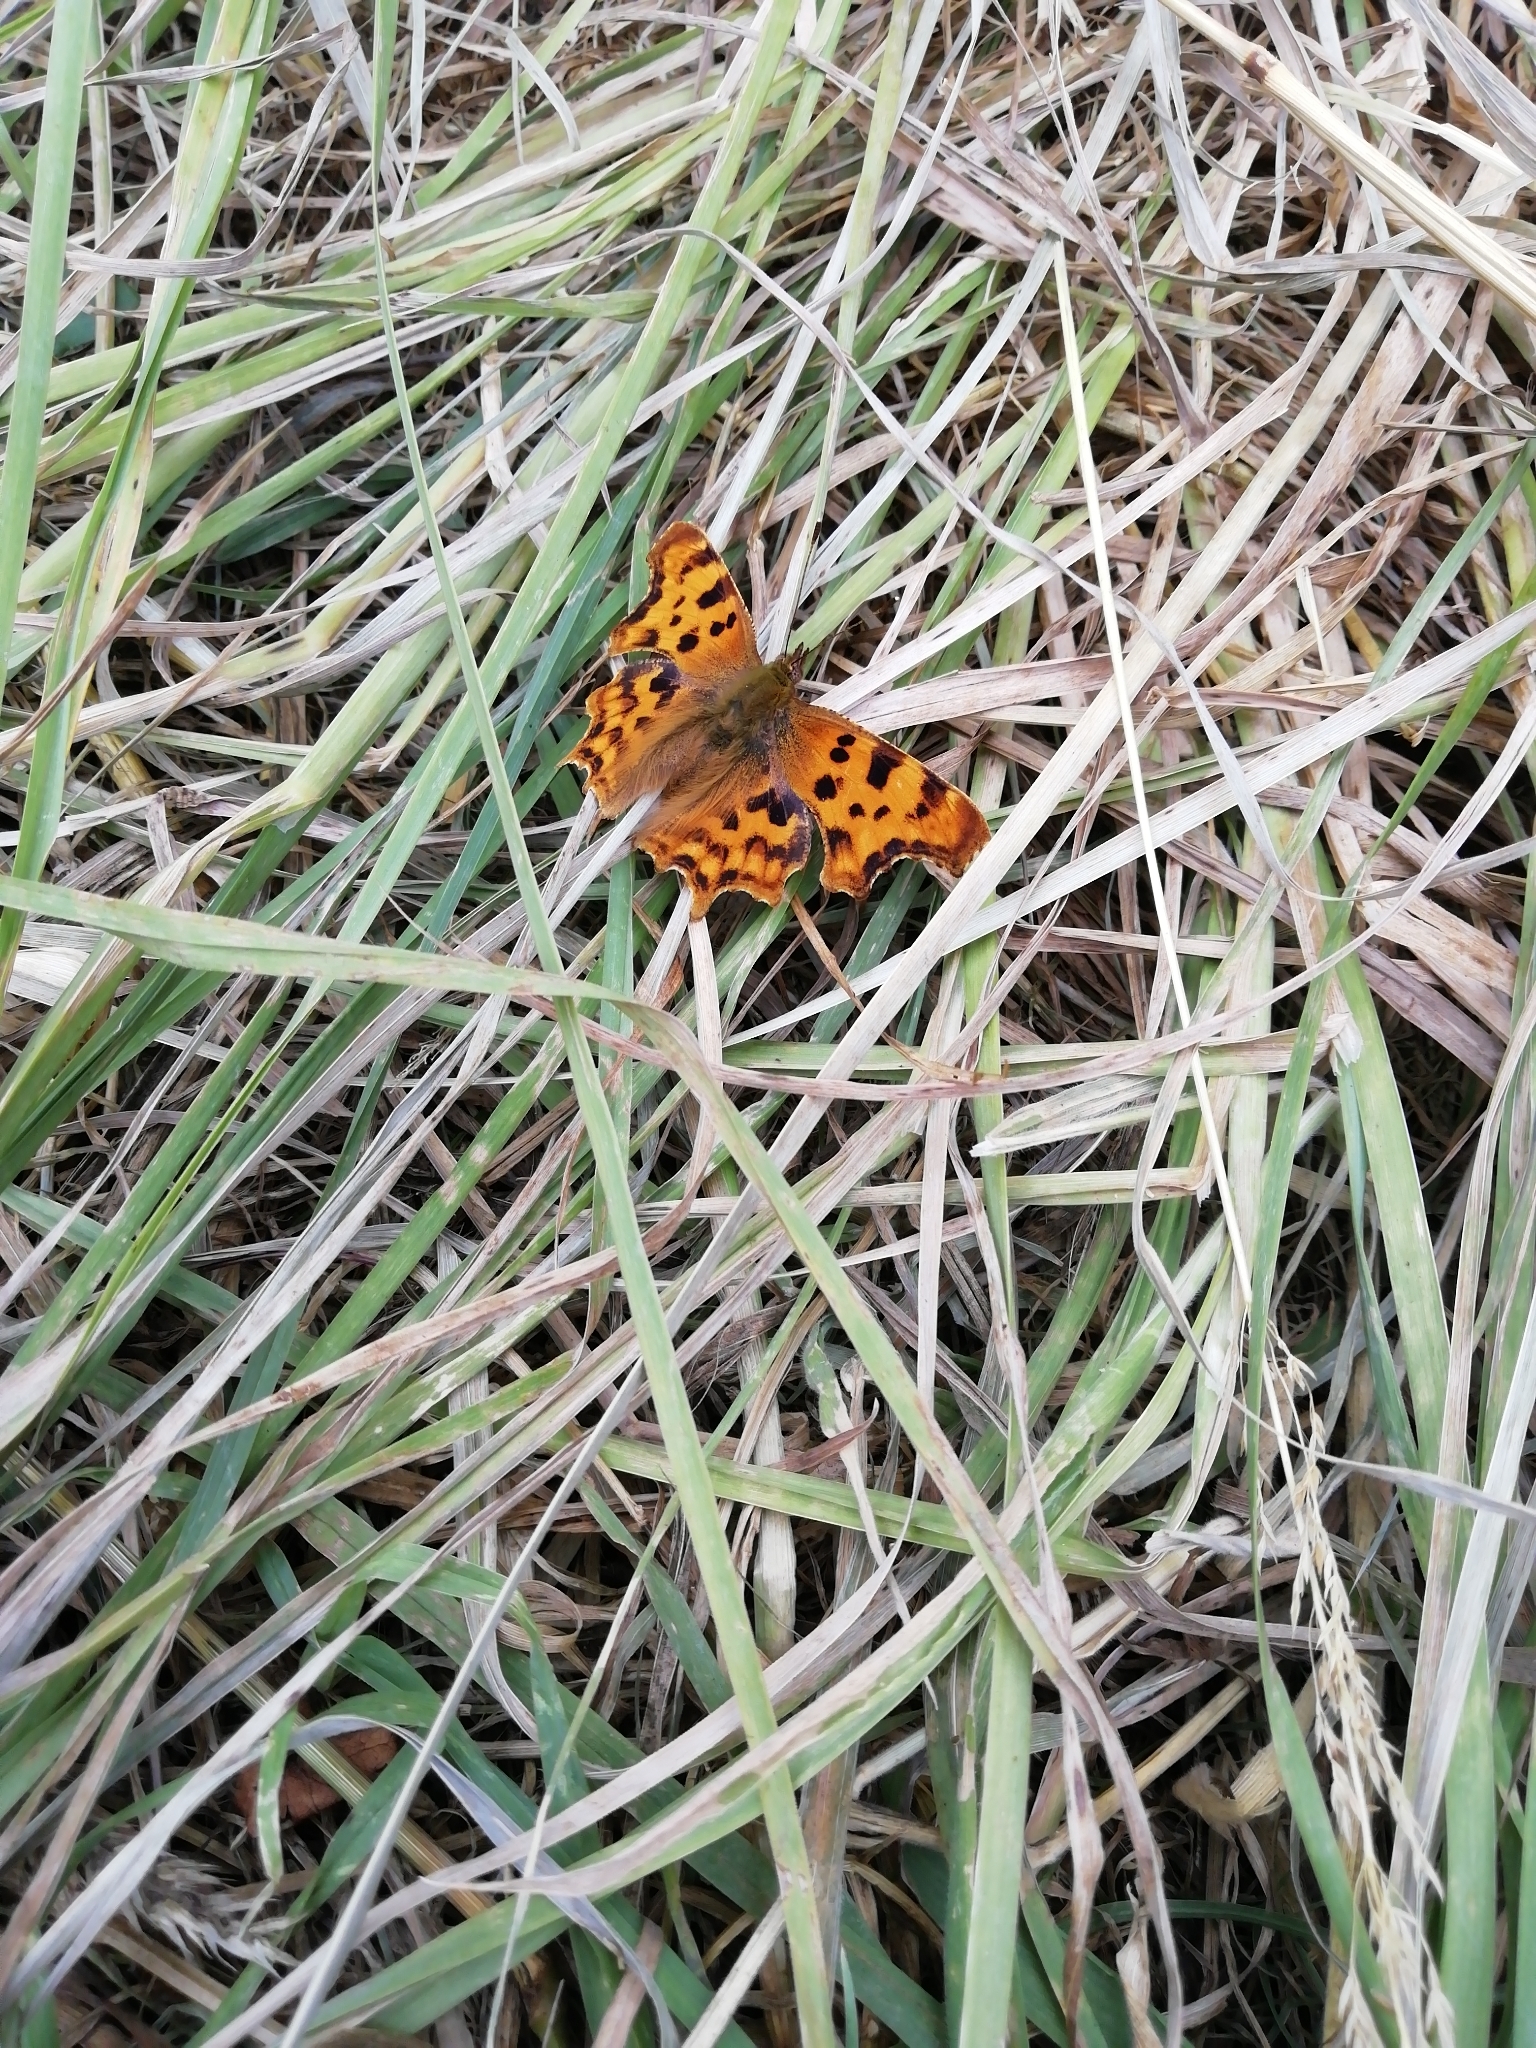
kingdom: Animalia
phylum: Arthropoda
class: Insecta
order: Lepidoptera
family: Nymphalidae
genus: Polygonia
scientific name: Polygonia c-album
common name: Comma
